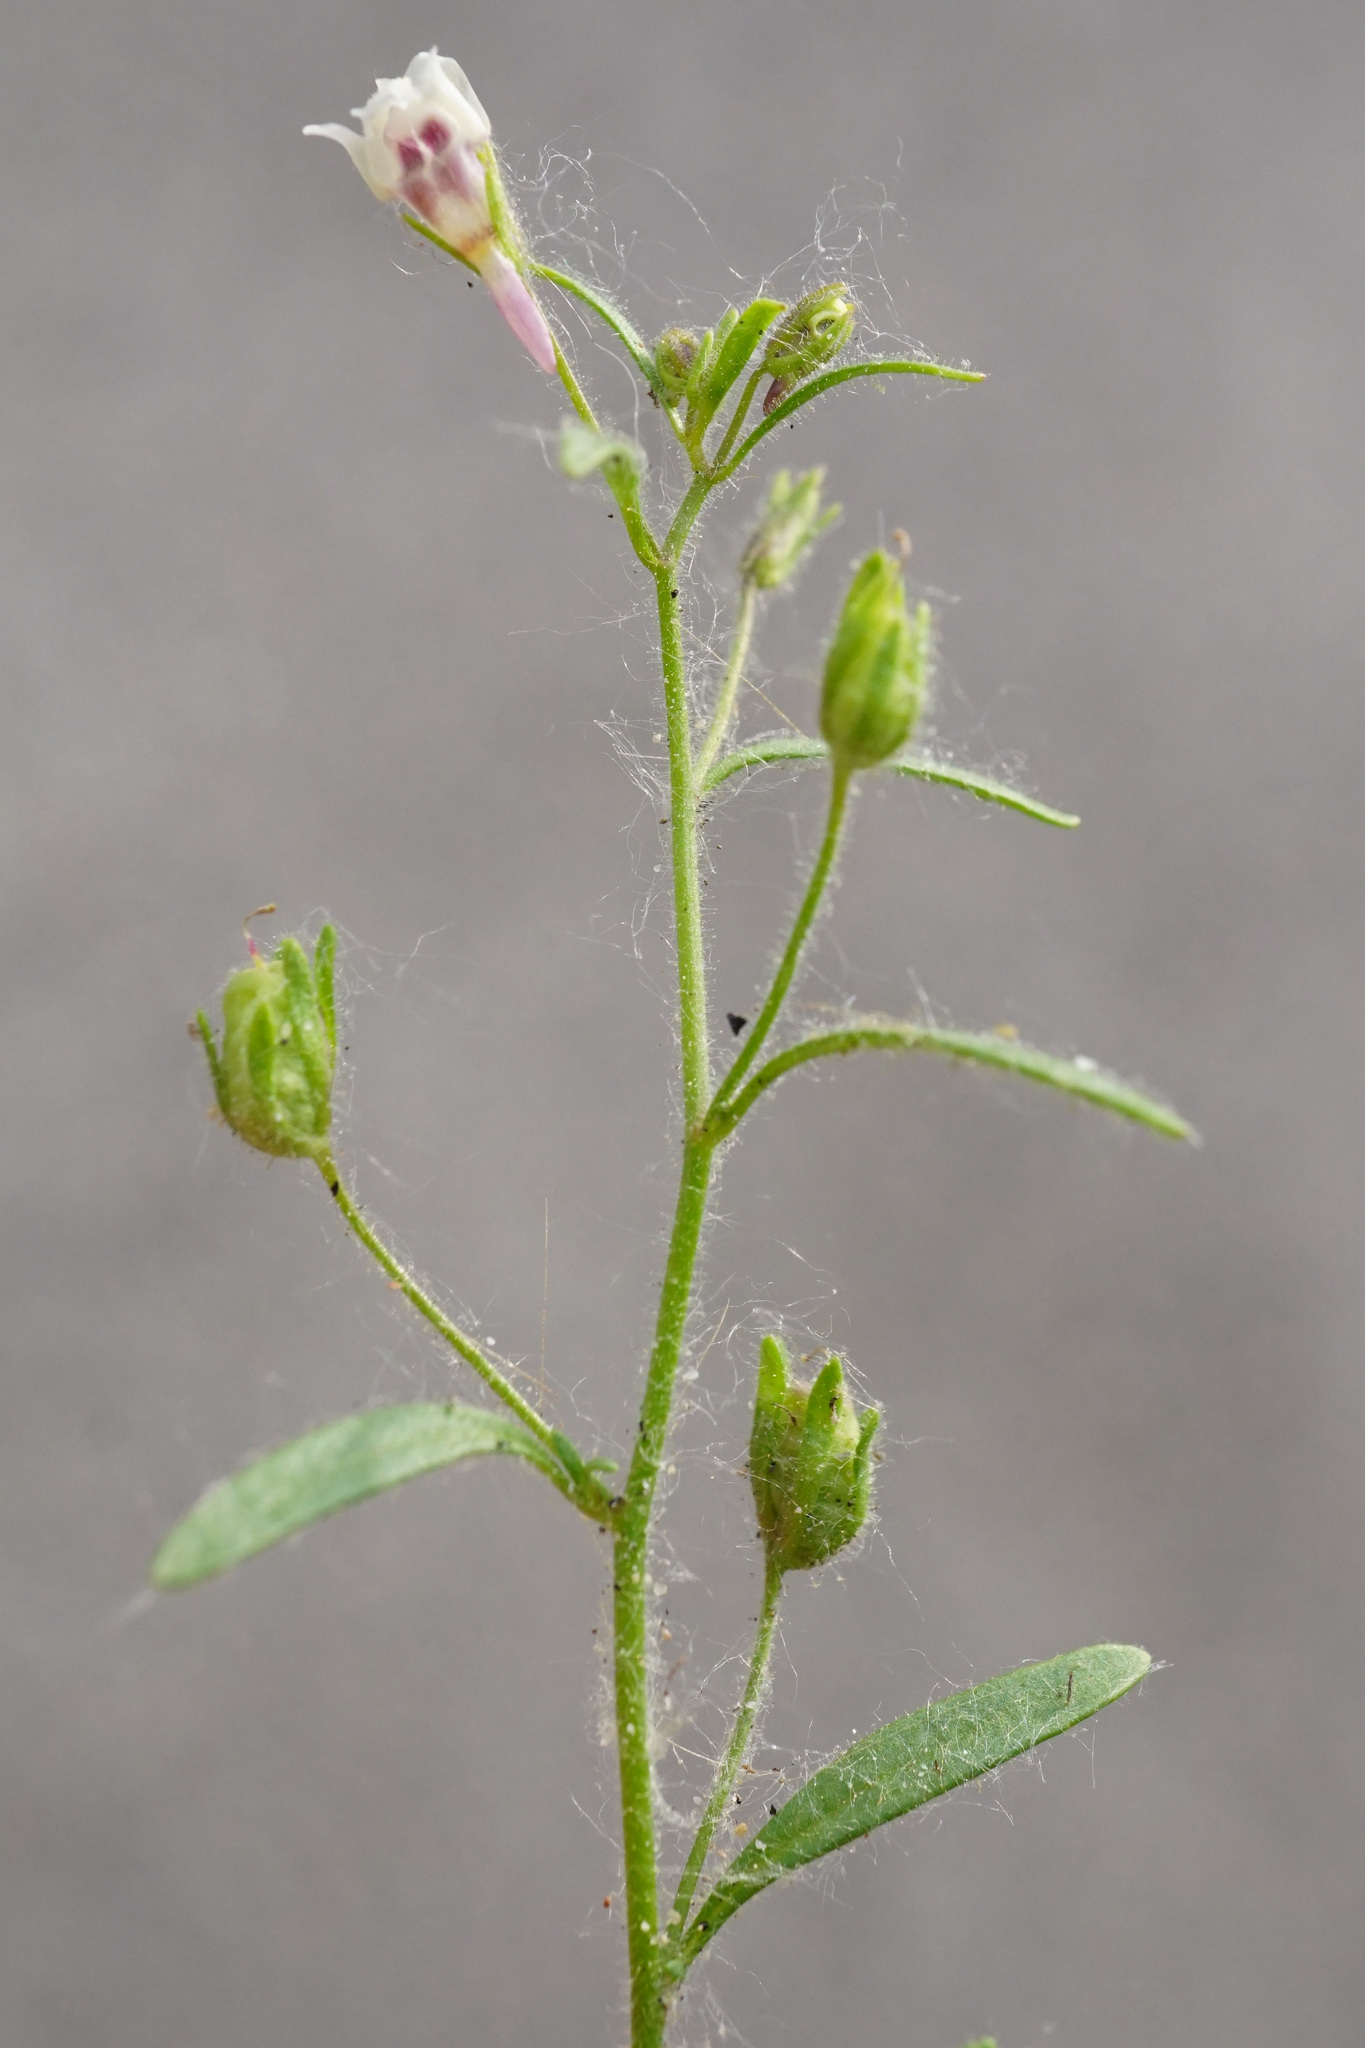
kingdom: Plantae
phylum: Tracheophyta
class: Magnoliopsida
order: Lamiales
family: Plantaginaceae
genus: Chaenorhinum
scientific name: Chaenorhinum minus
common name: Dwarf snapdragon
